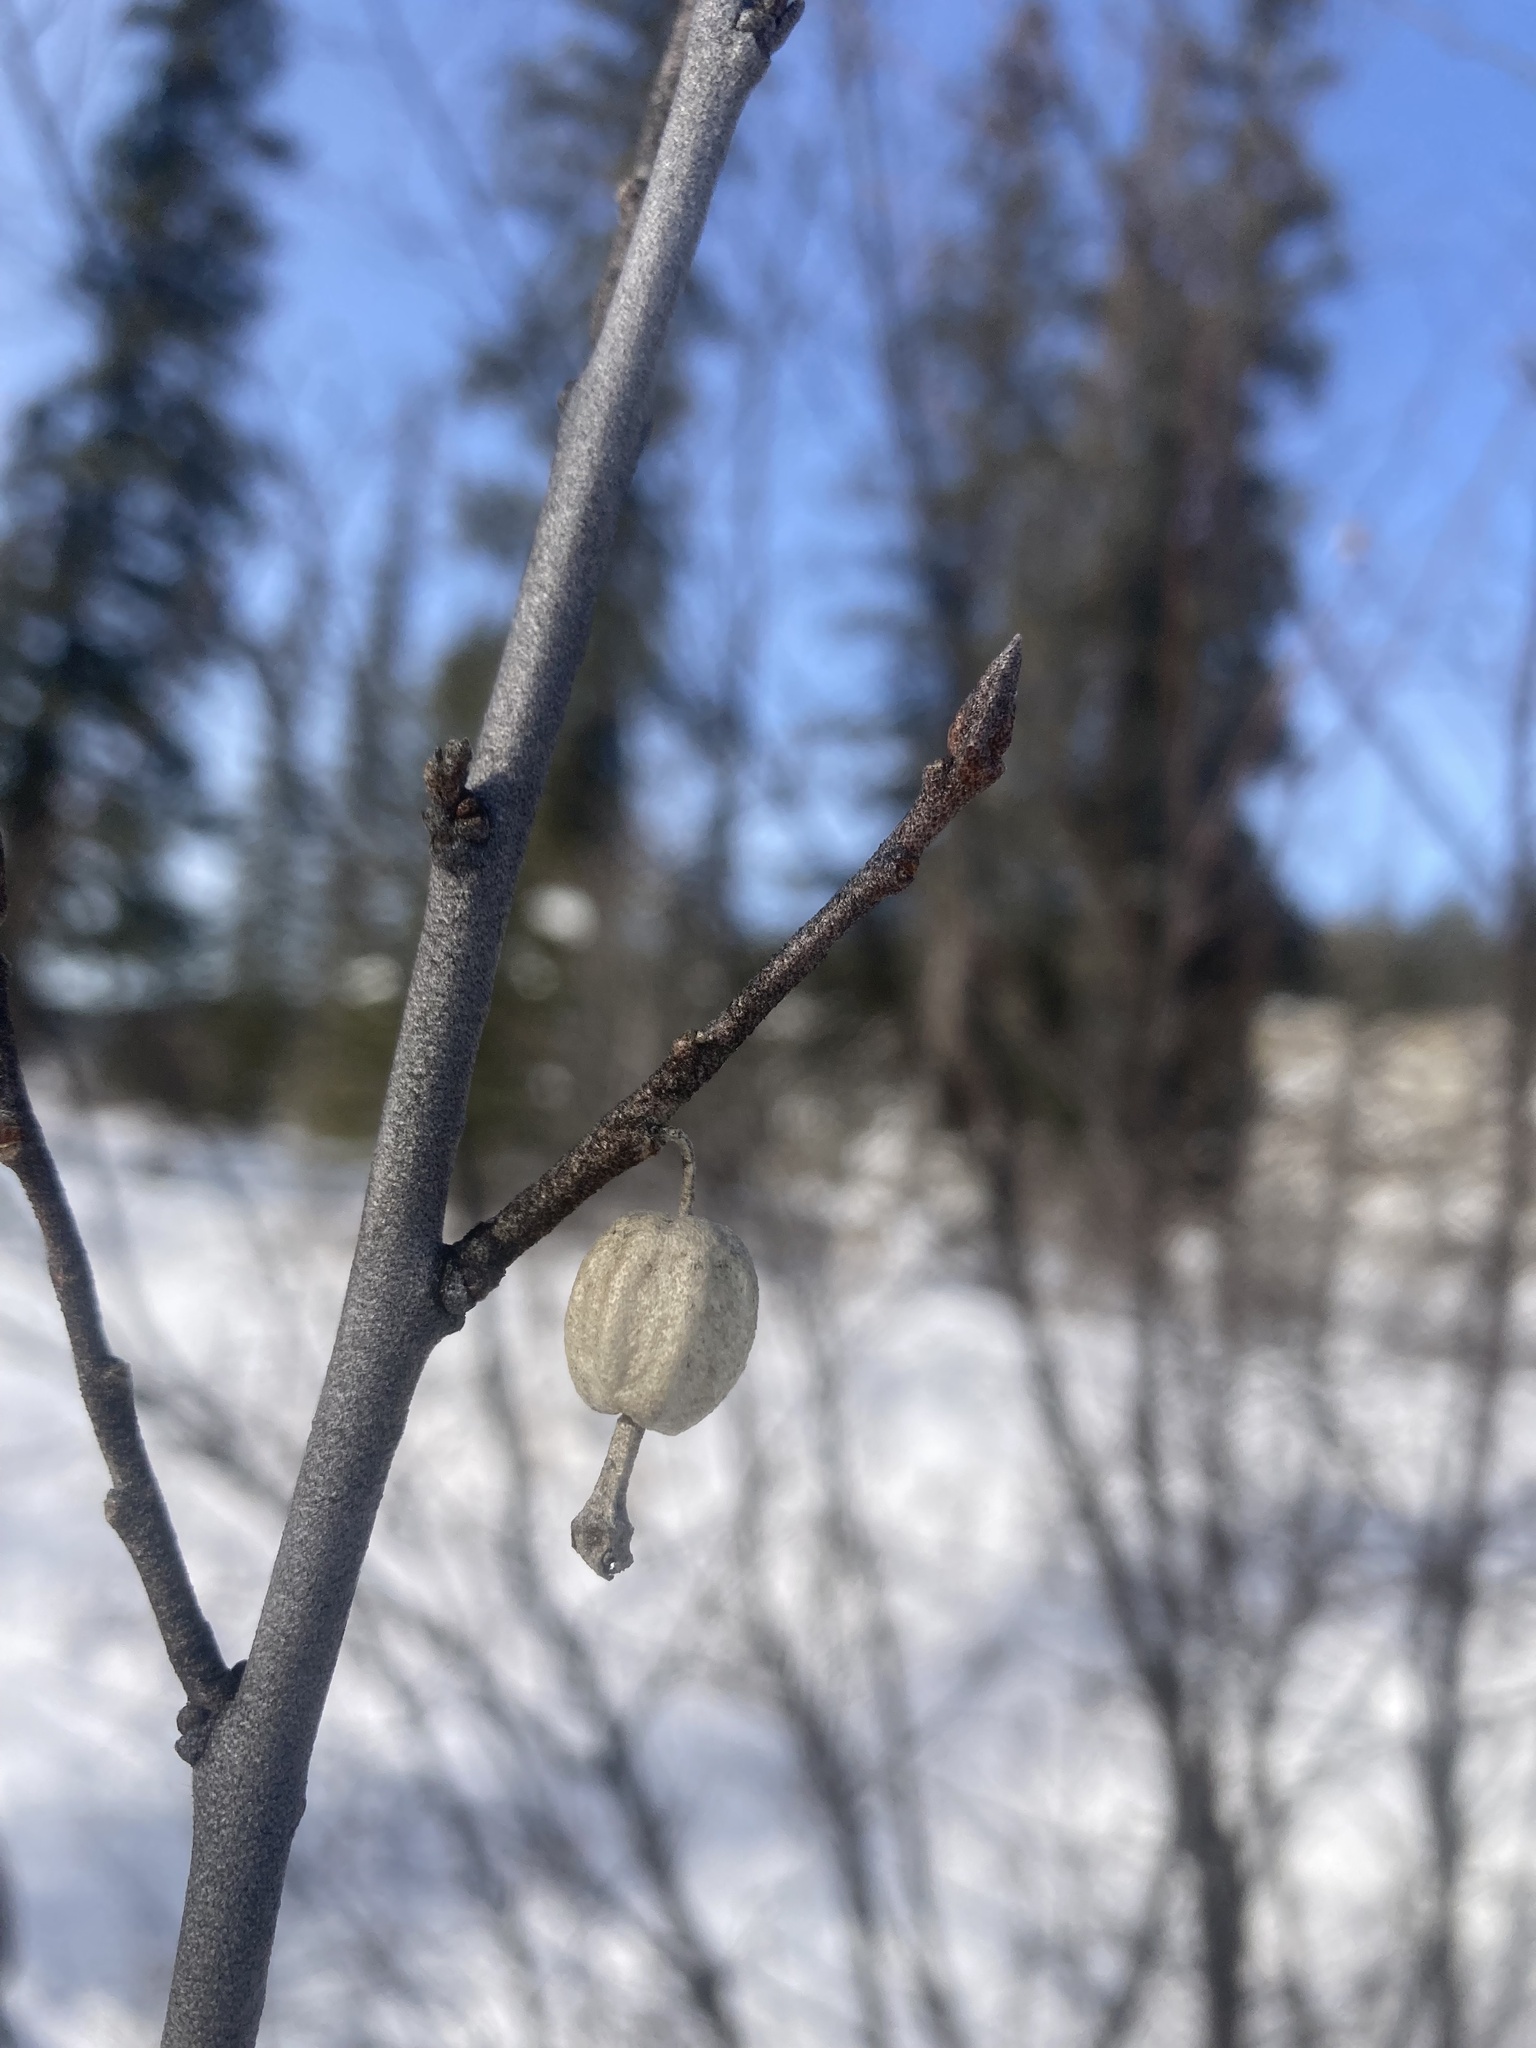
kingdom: Plantae
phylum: Tracheophyta
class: Magnoliopsida
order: Rosales
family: Elaeagnaceae
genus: Elaeagnus
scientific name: Elaeagnus commutata
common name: Silverberry
